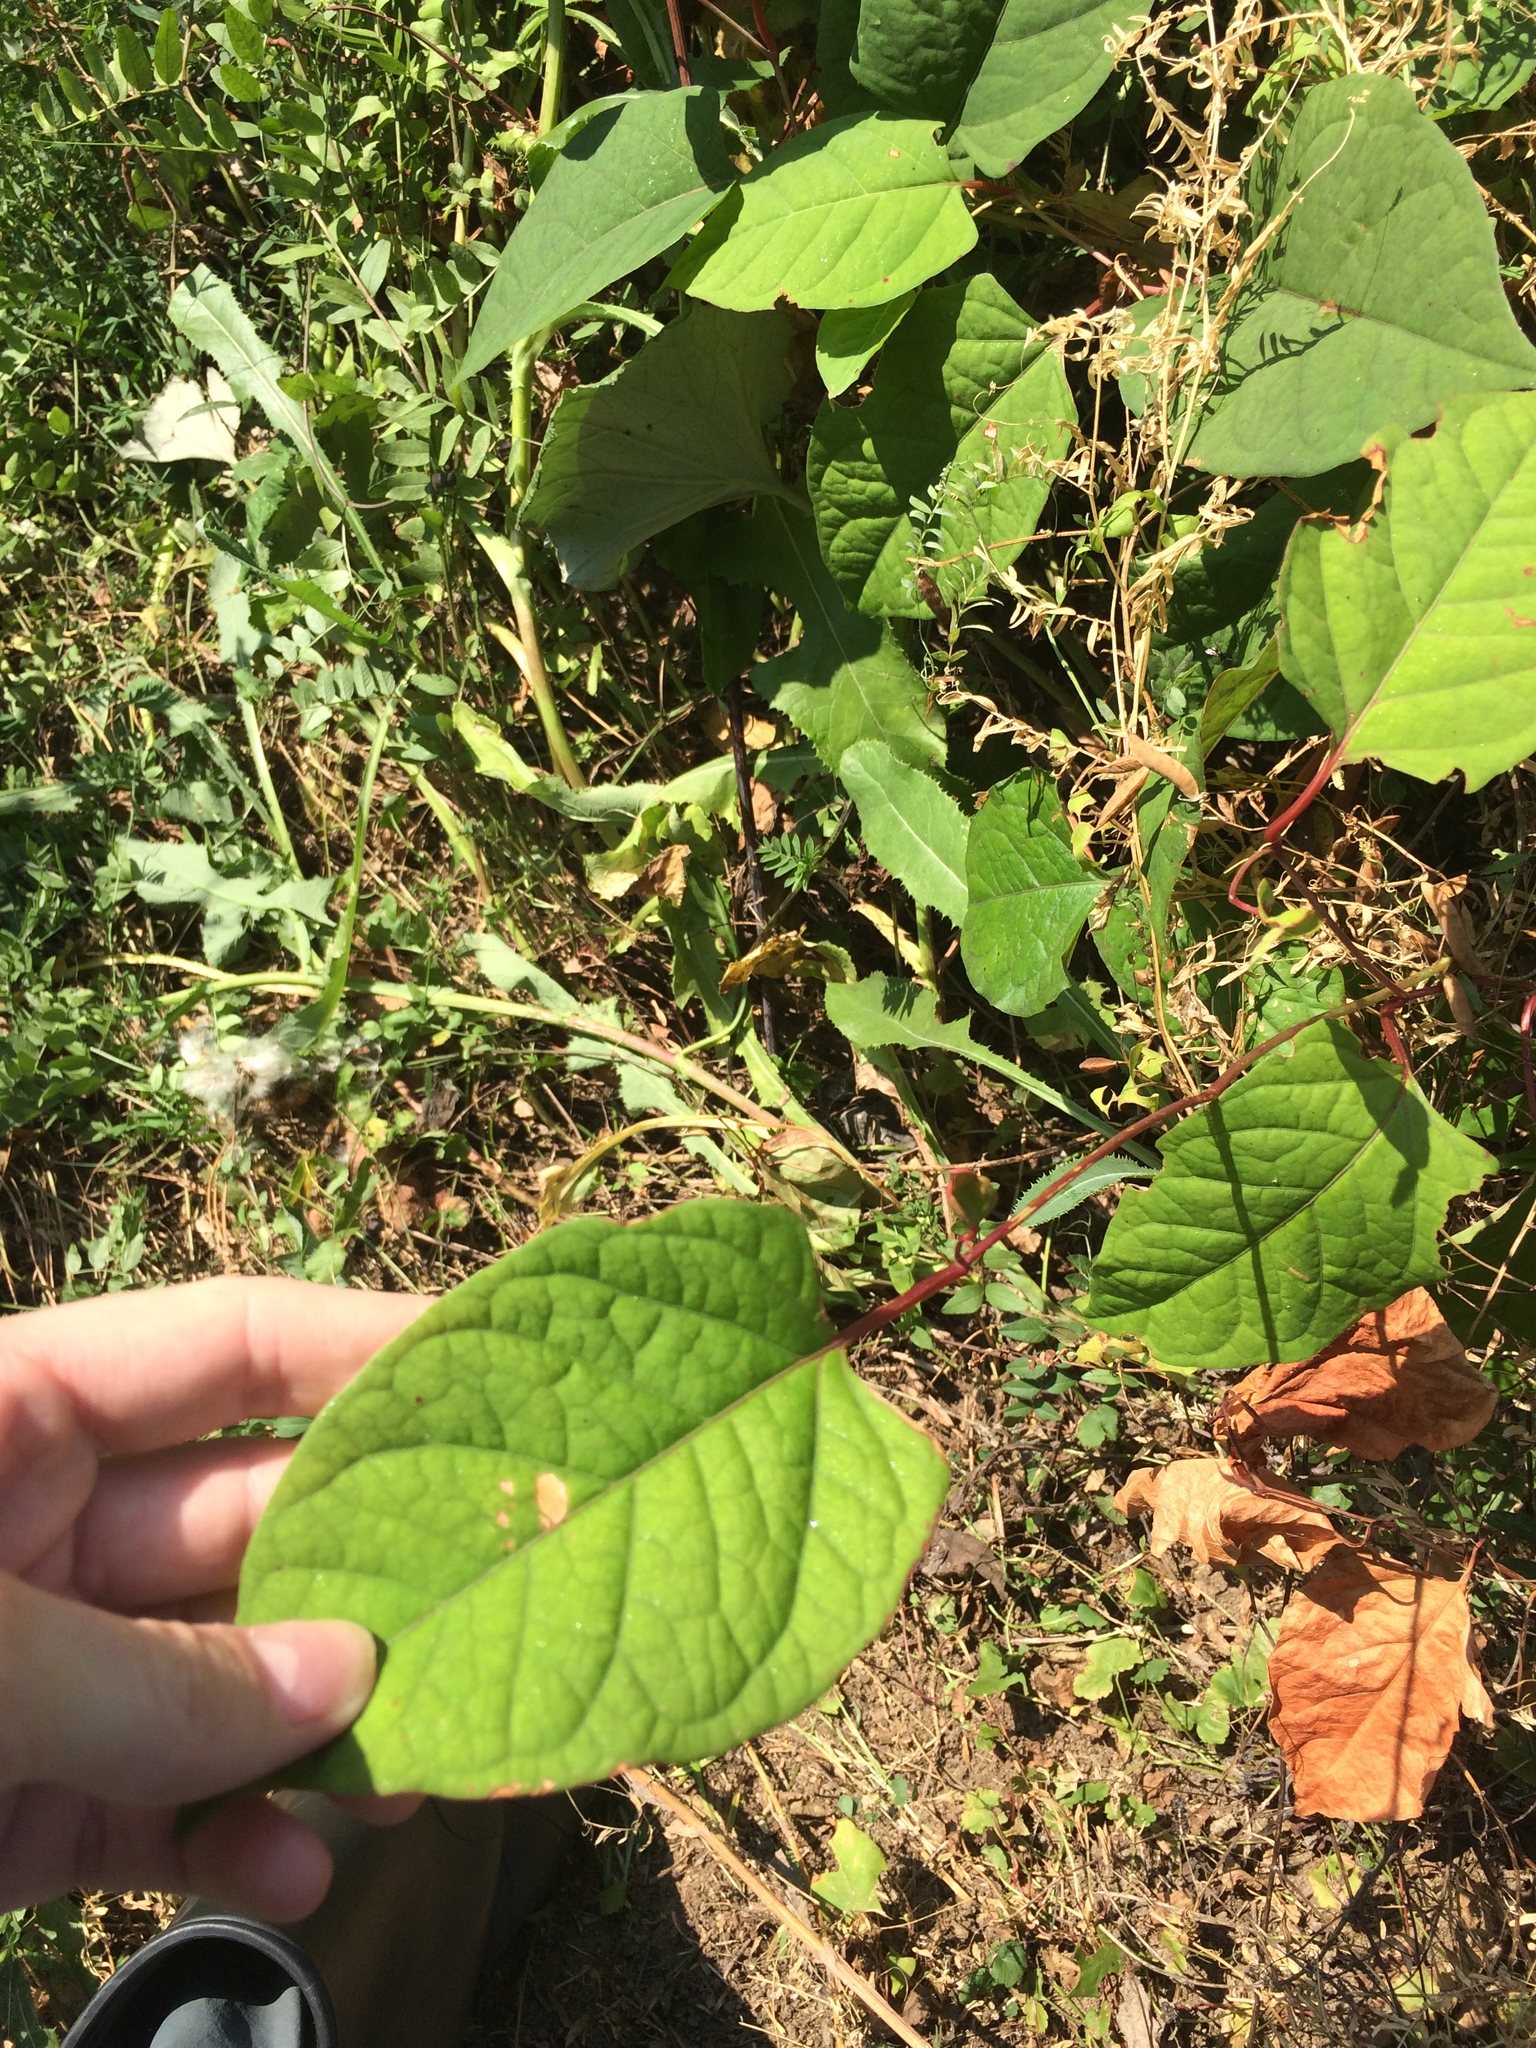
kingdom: Plantae
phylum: Tracheophyta
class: Magnoliopsida
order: Caryophyllales
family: Polygonaceae
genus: Reynoutria
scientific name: Reynoutria japonica
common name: Japanese knotweed
